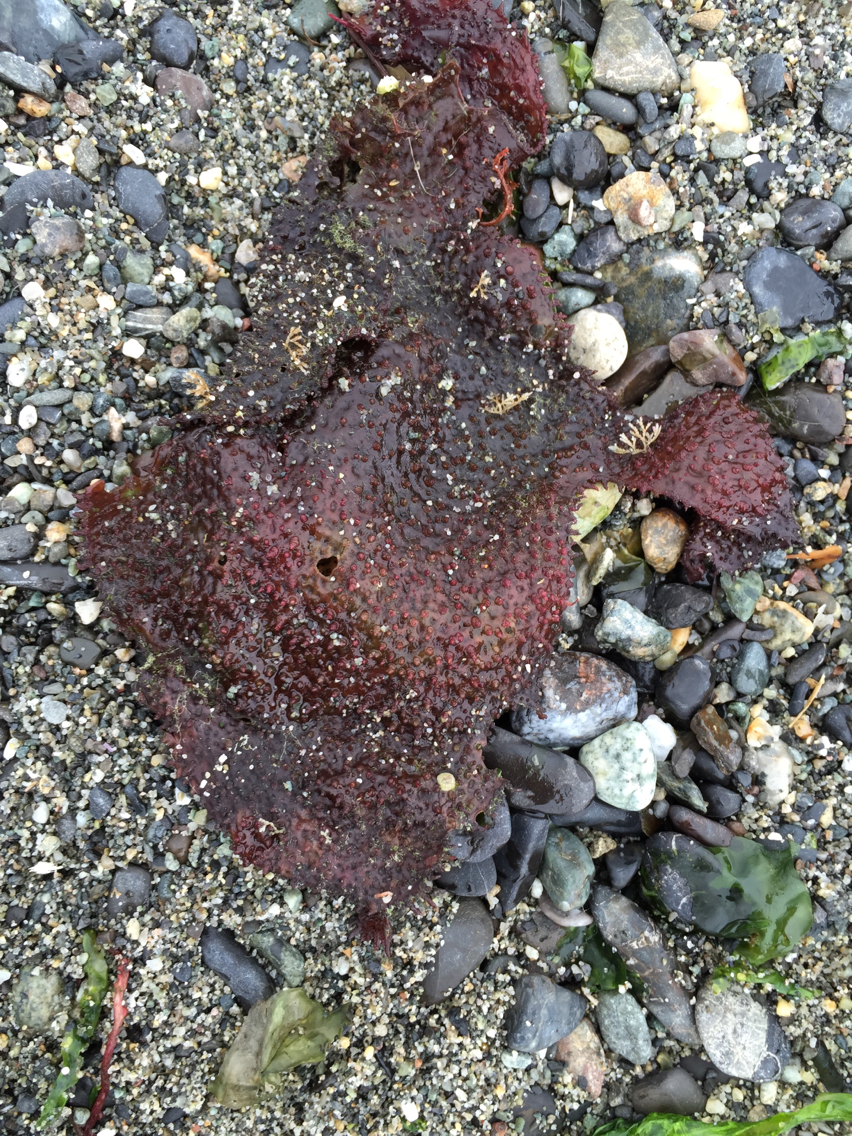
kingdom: Plantae
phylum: Rhodophyta
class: Florideophyceae
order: Gigartinales
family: Gigartinaceae
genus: Chondracanthus
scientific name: Chondracanthus exasperatus
